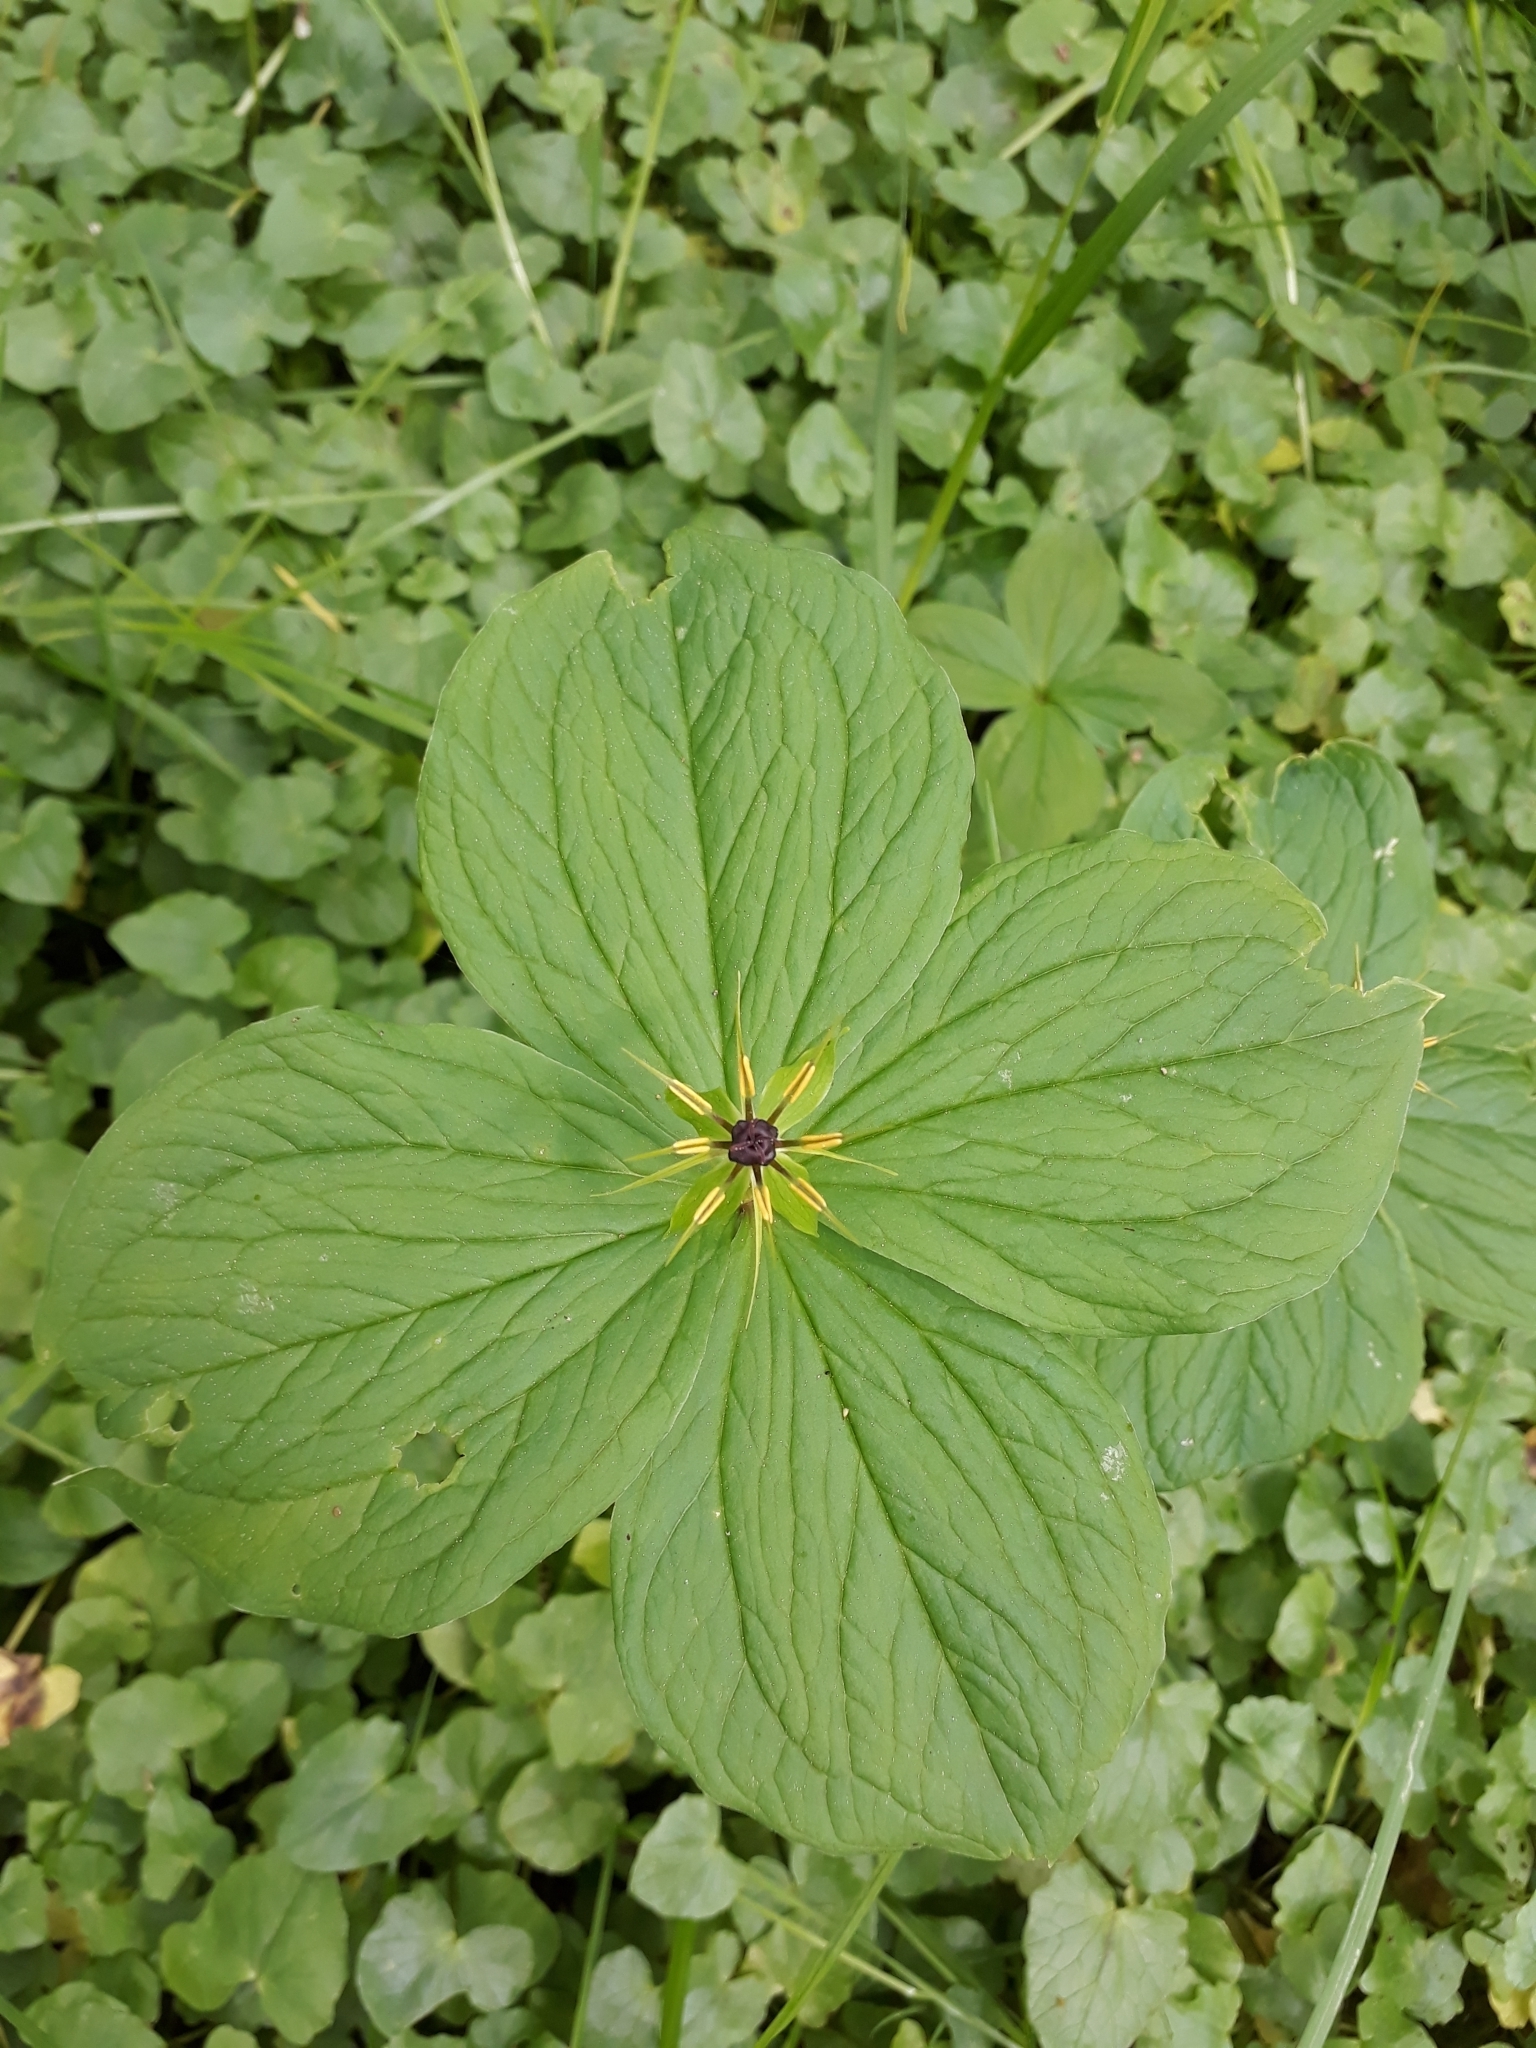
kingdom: Plantae
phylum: Tracheophyta
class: Liliopsida
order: Liliales
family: Melanthiaceae
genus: Paris
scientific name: Paris quadrifolia
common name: Herb-paris
